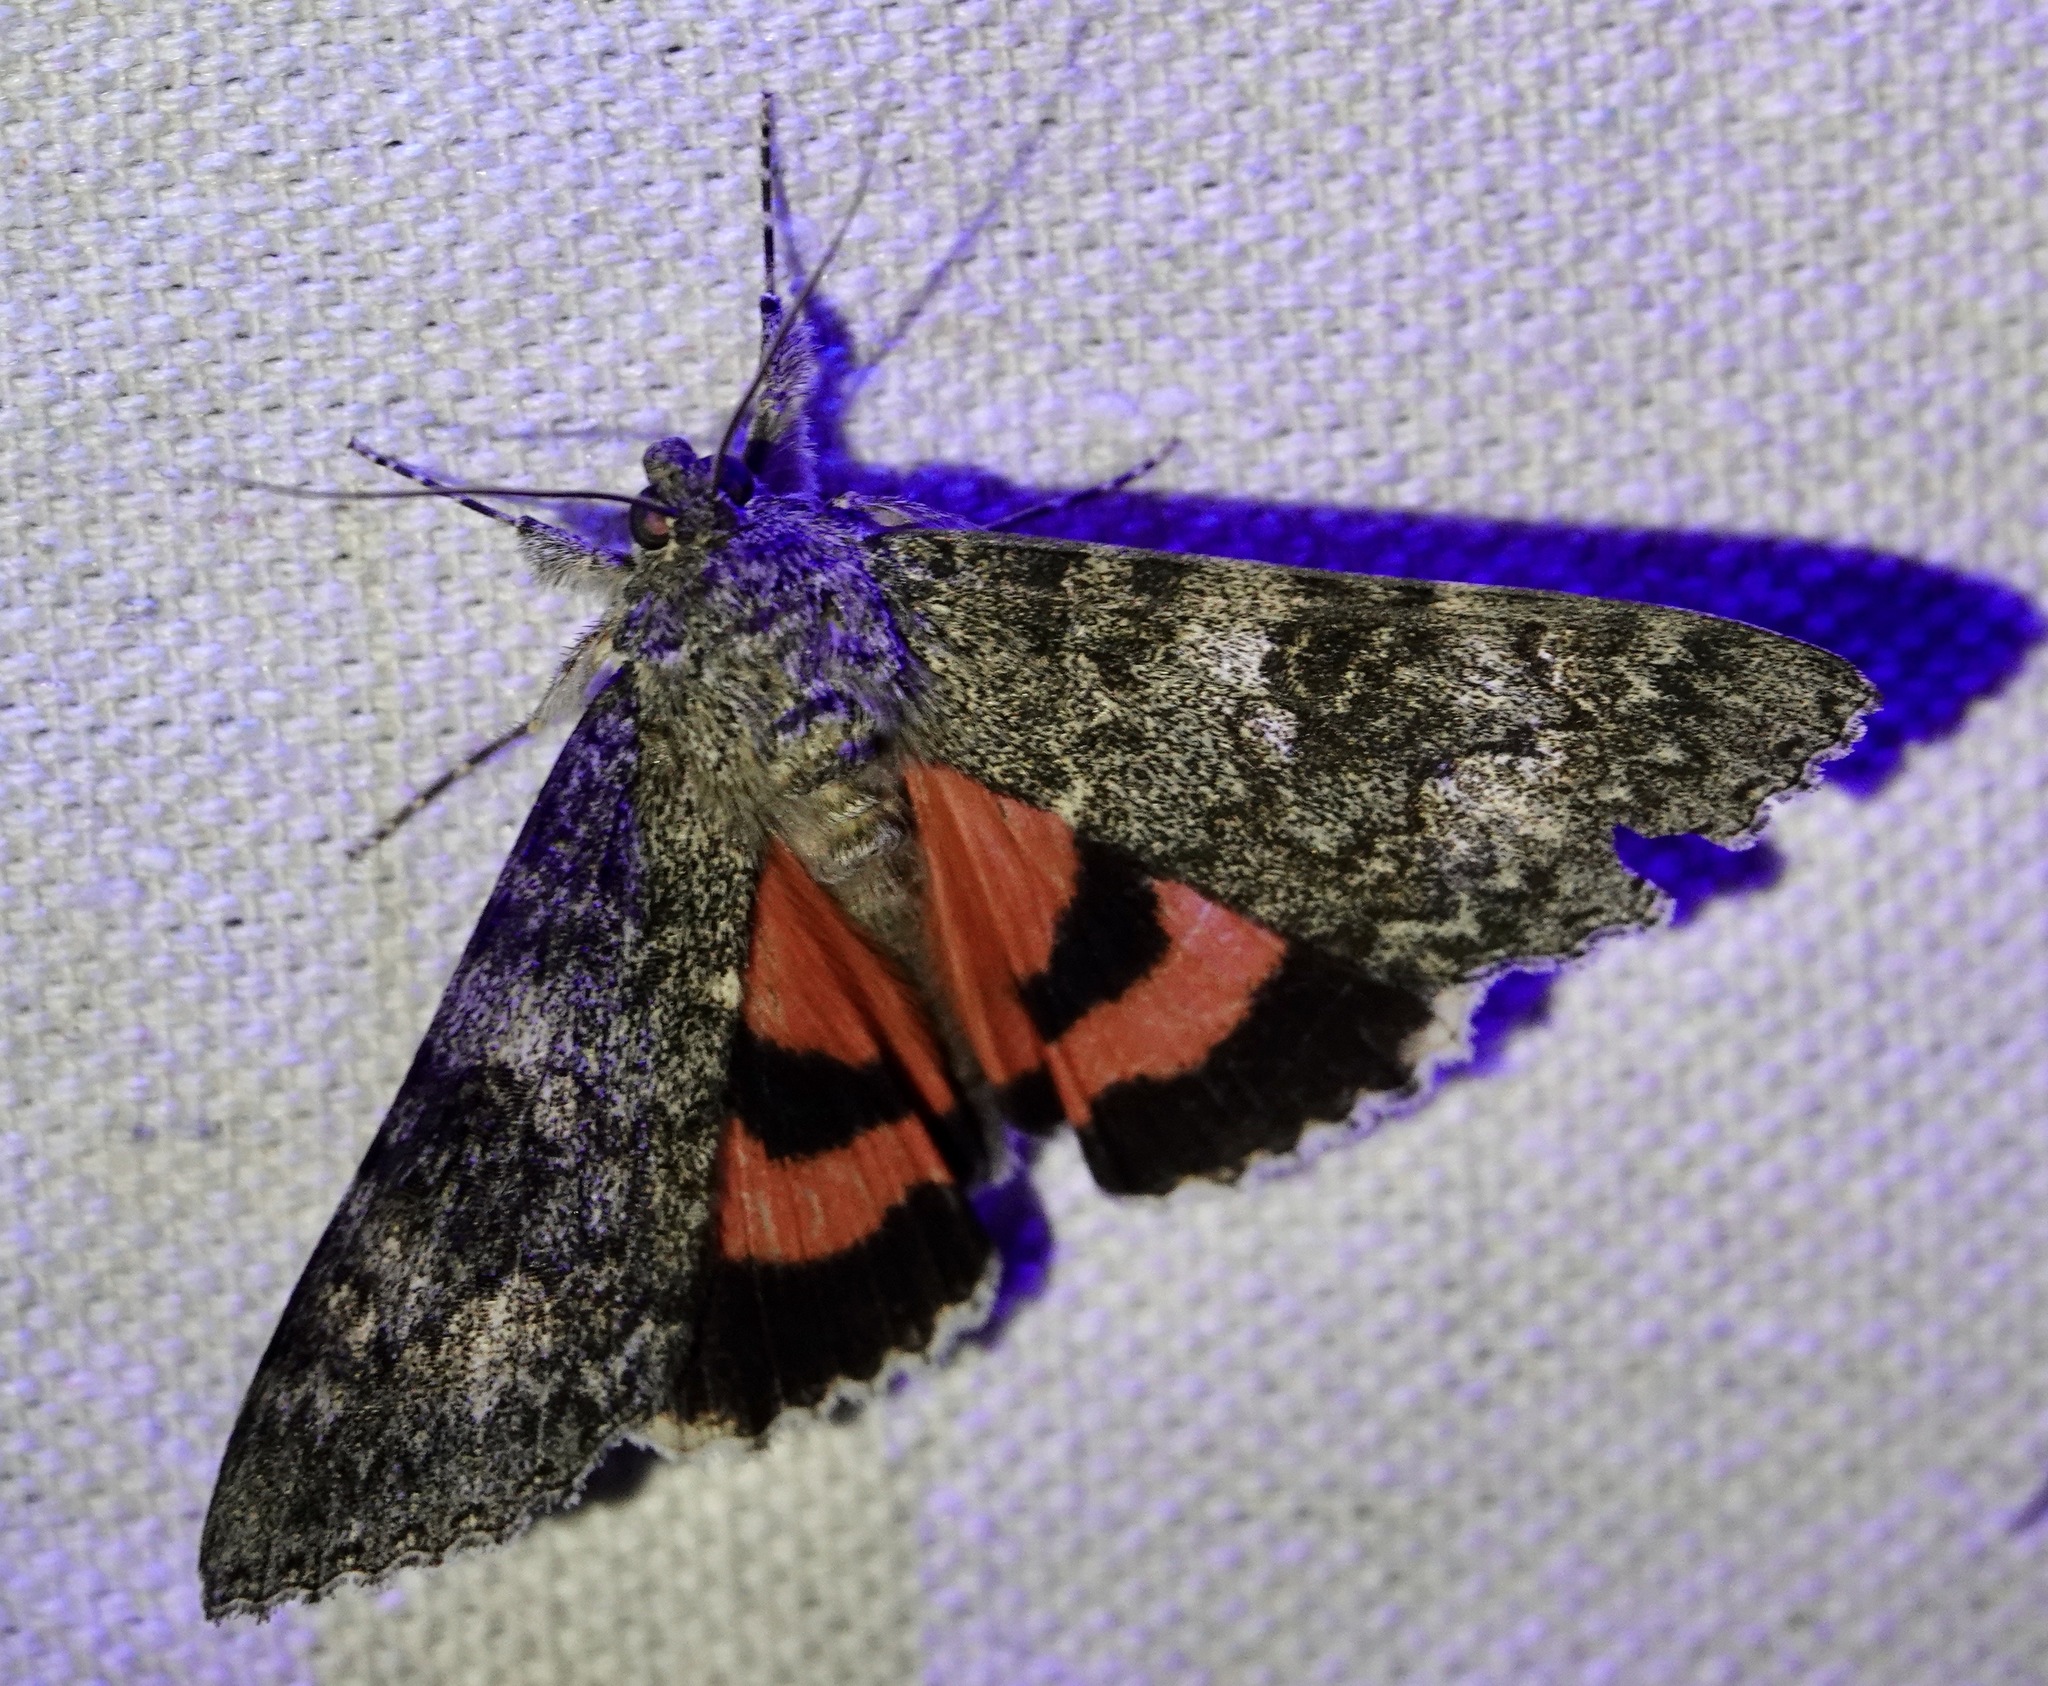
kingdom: Animalia
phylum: Arthropoda
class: Insecta
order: Lepidoptera
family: Erebidae
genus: Catocala
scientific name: Catocala californica
